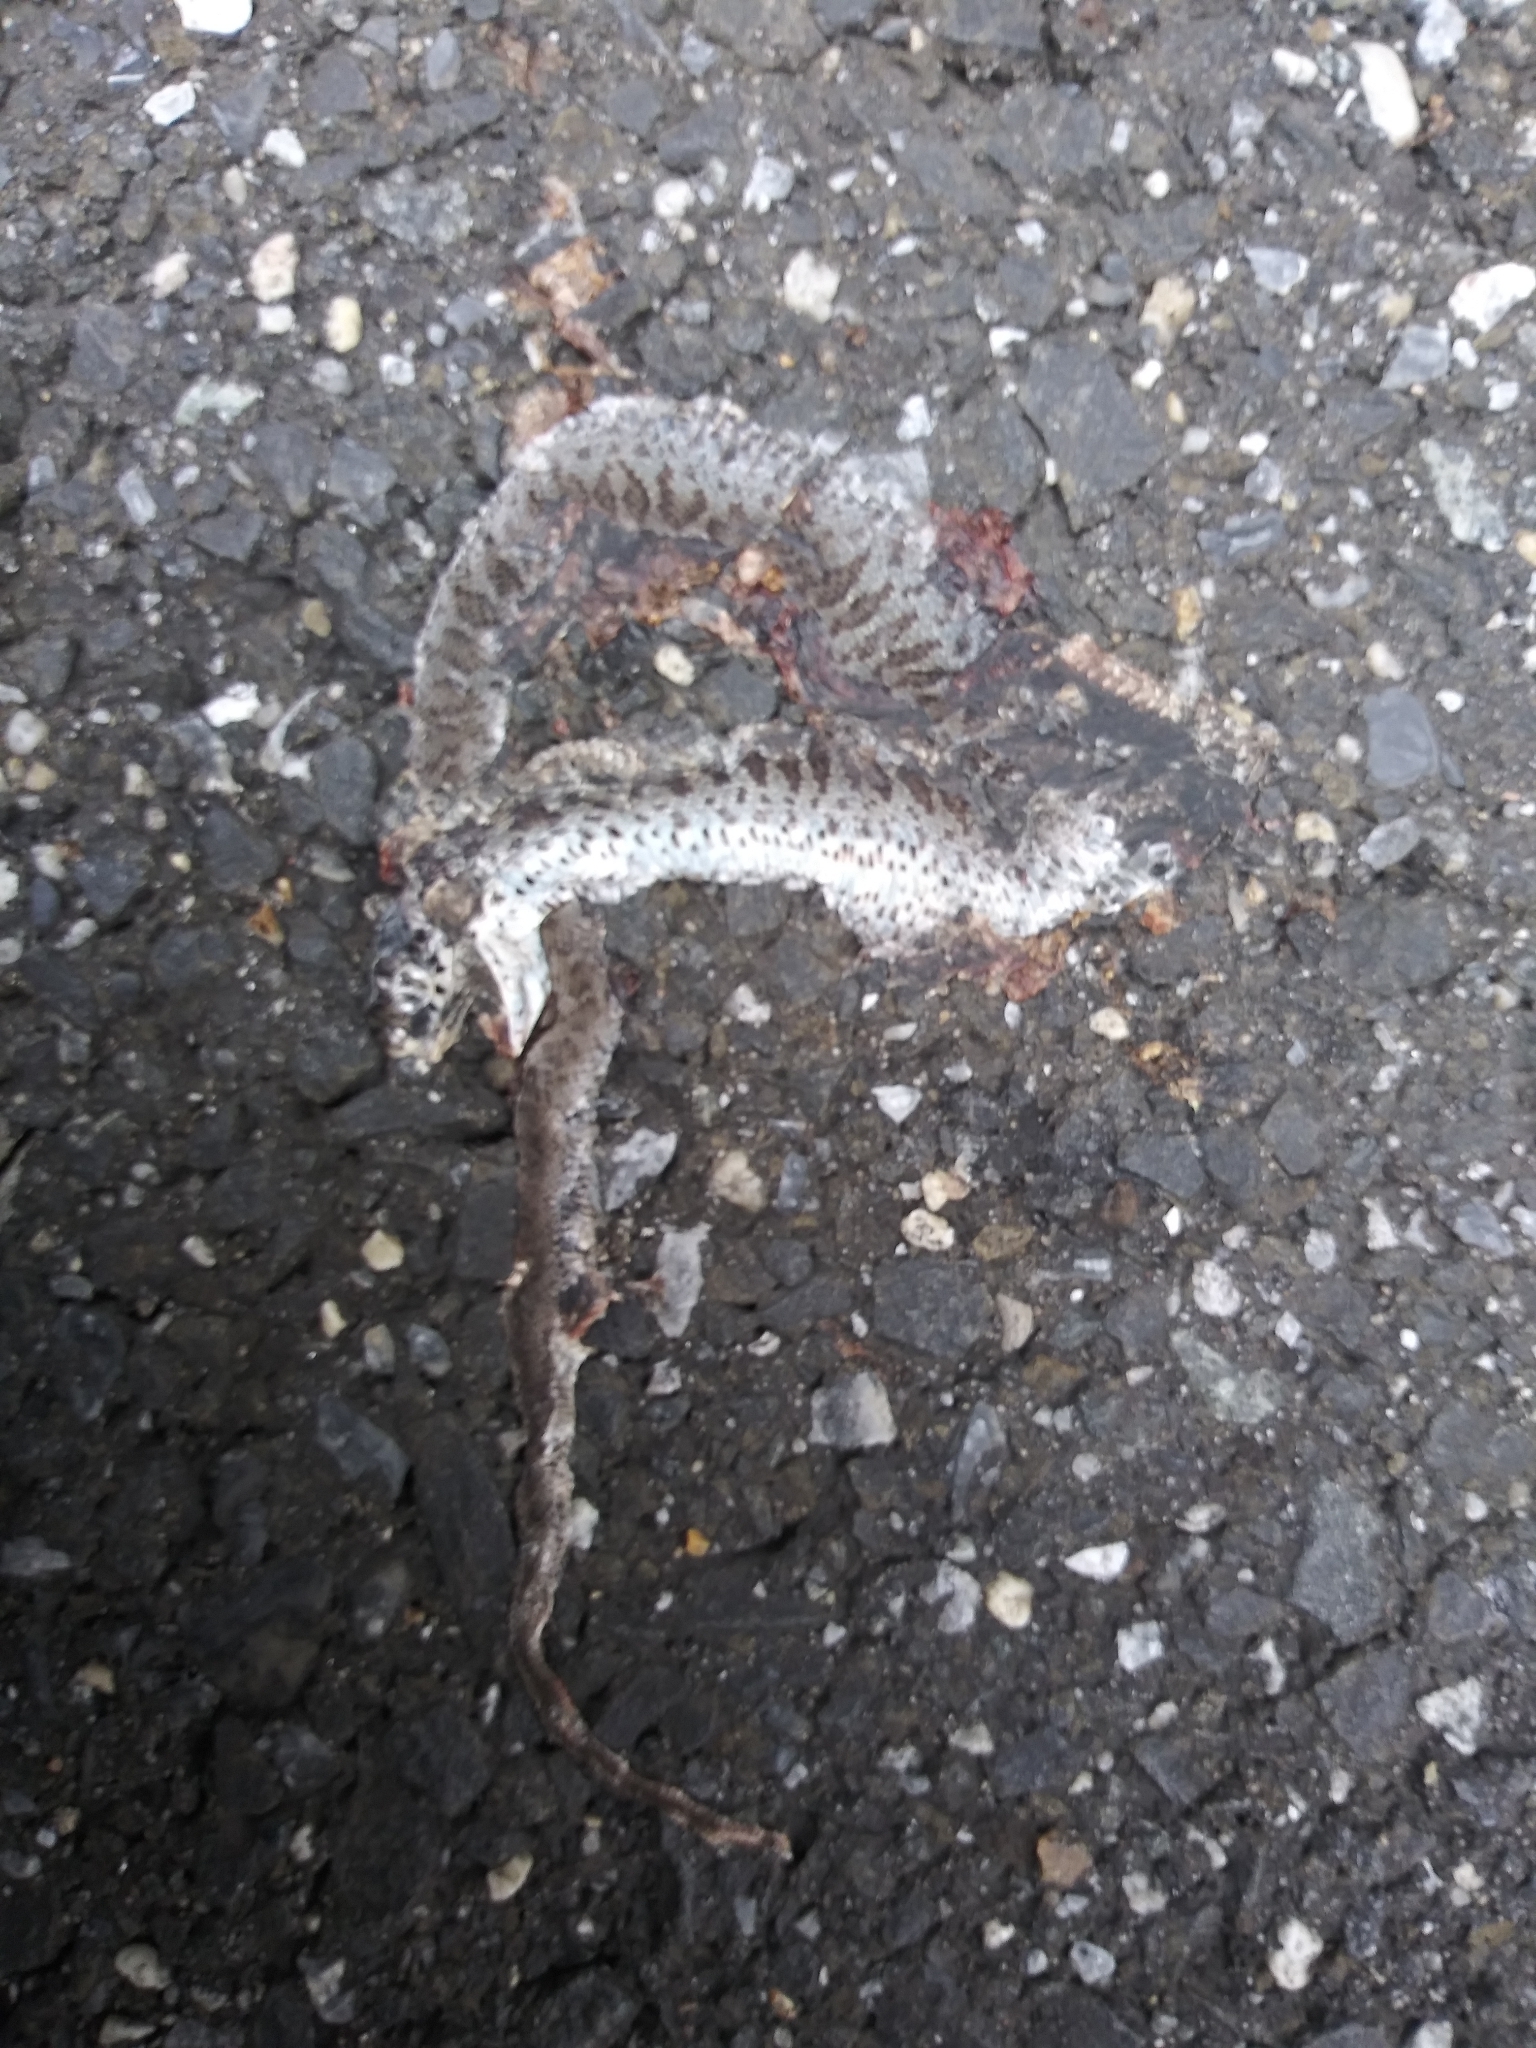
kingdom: Animalia
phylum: Chordata
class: Squamata
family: Colubridae
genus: Coluber
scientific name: Coluber constrictor
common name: Eastern racer
